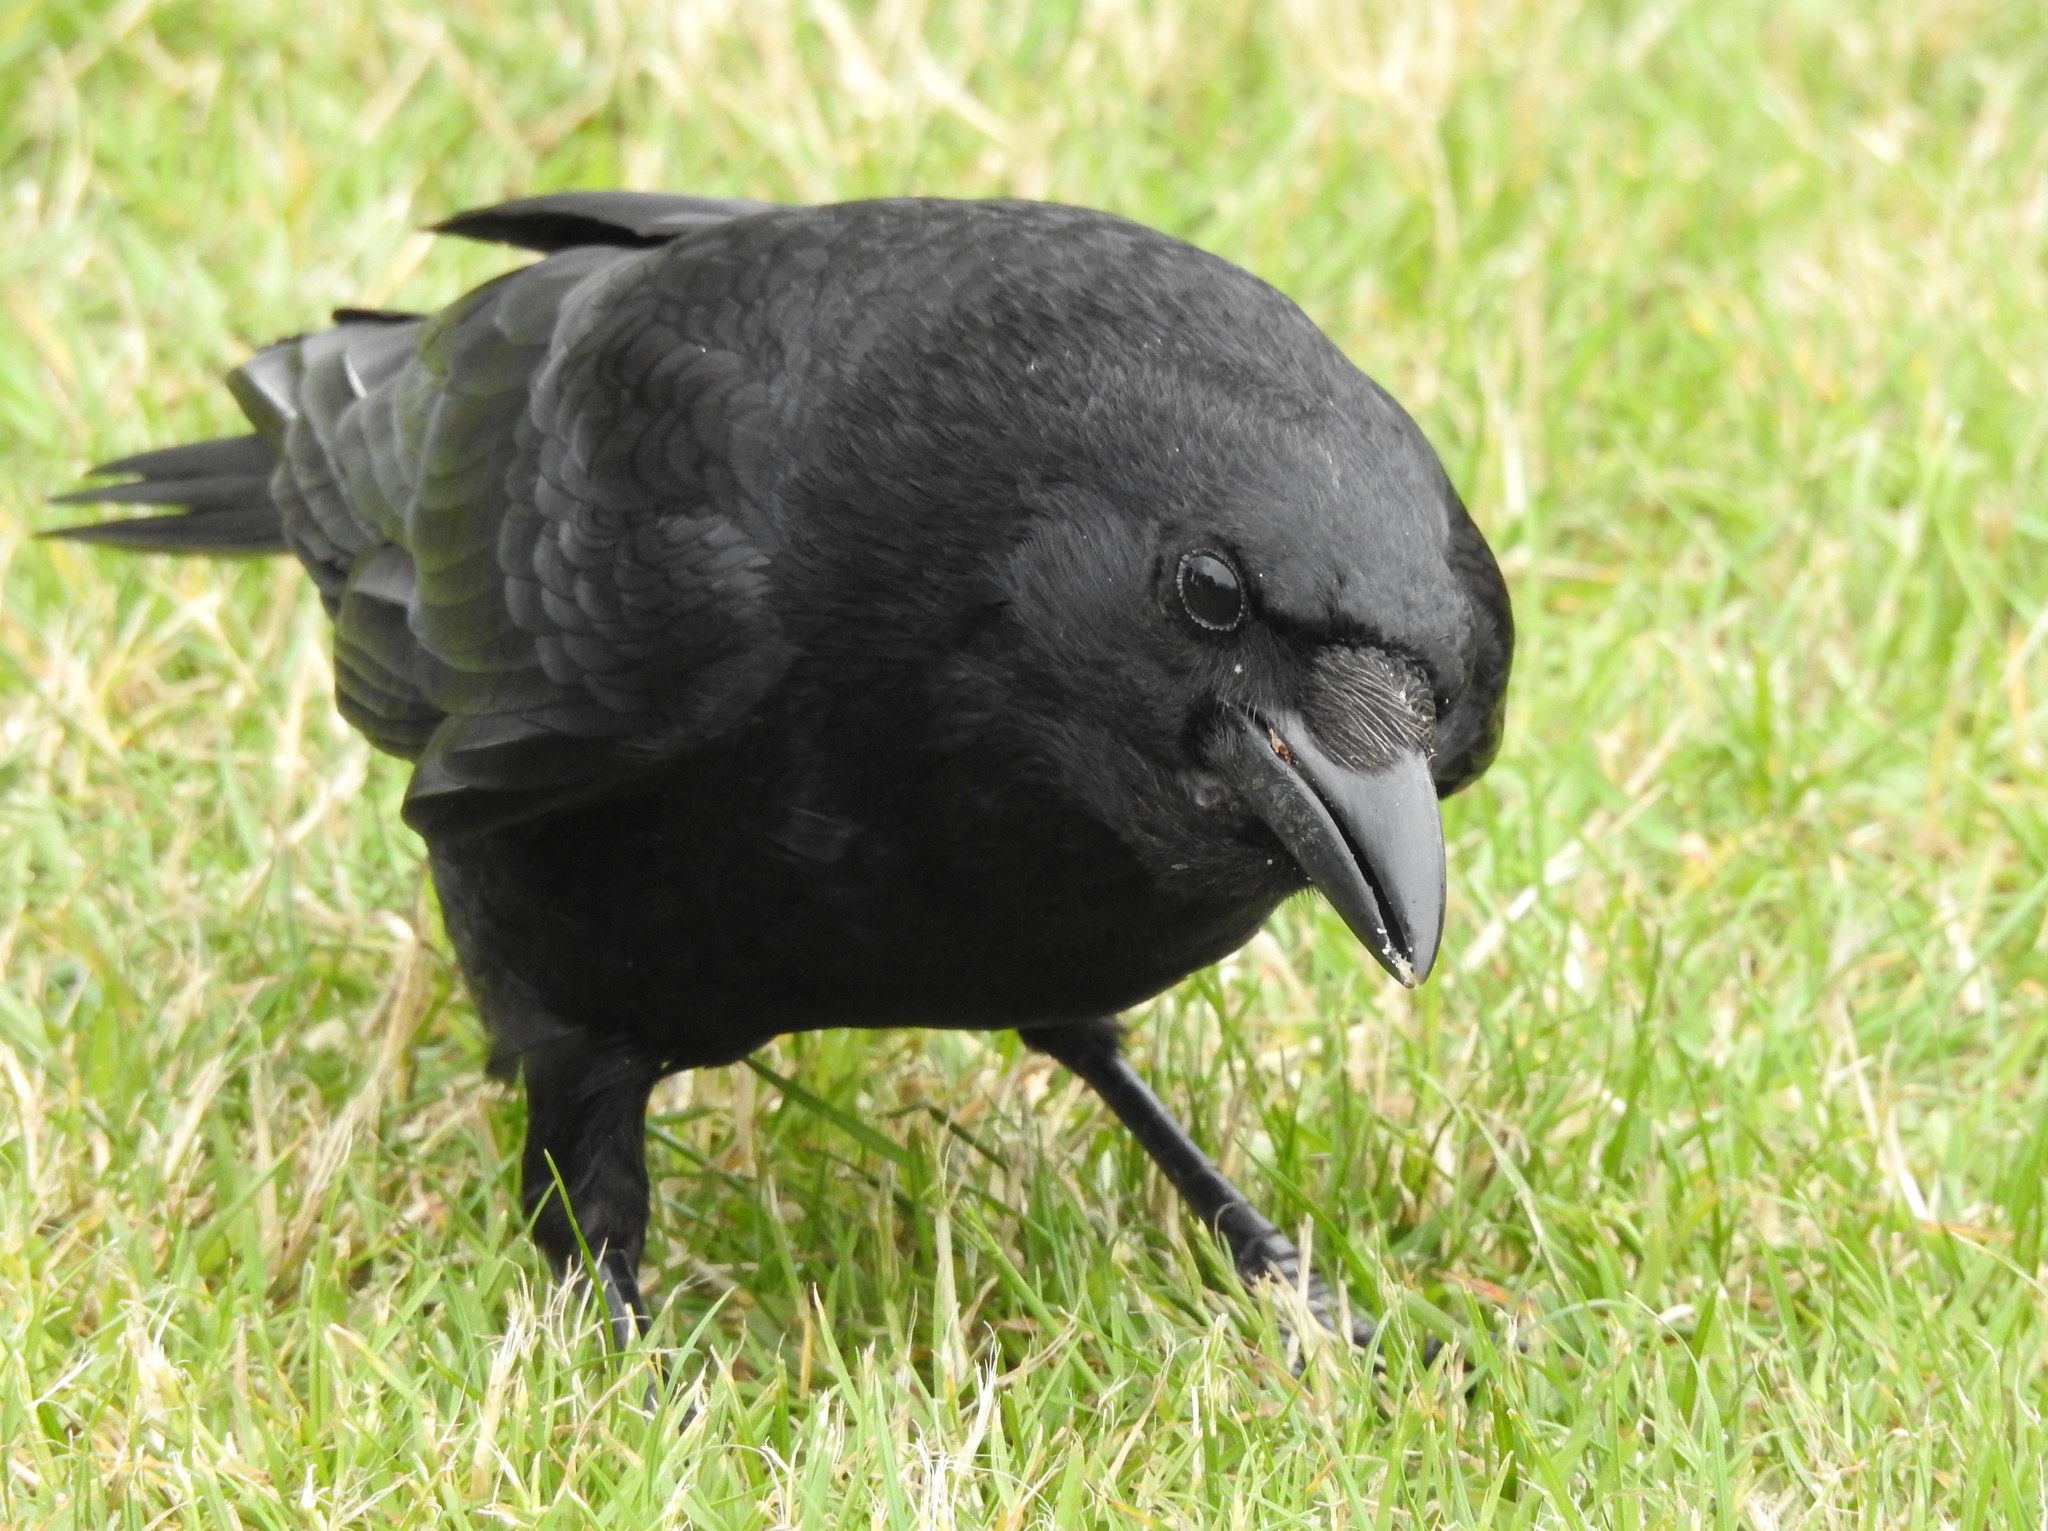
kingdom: Animalia
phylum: Chordata
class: Aves
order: Passeriformes
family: Corvidae
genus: Corvus
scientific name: Corvus corone
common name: Carrion crow
